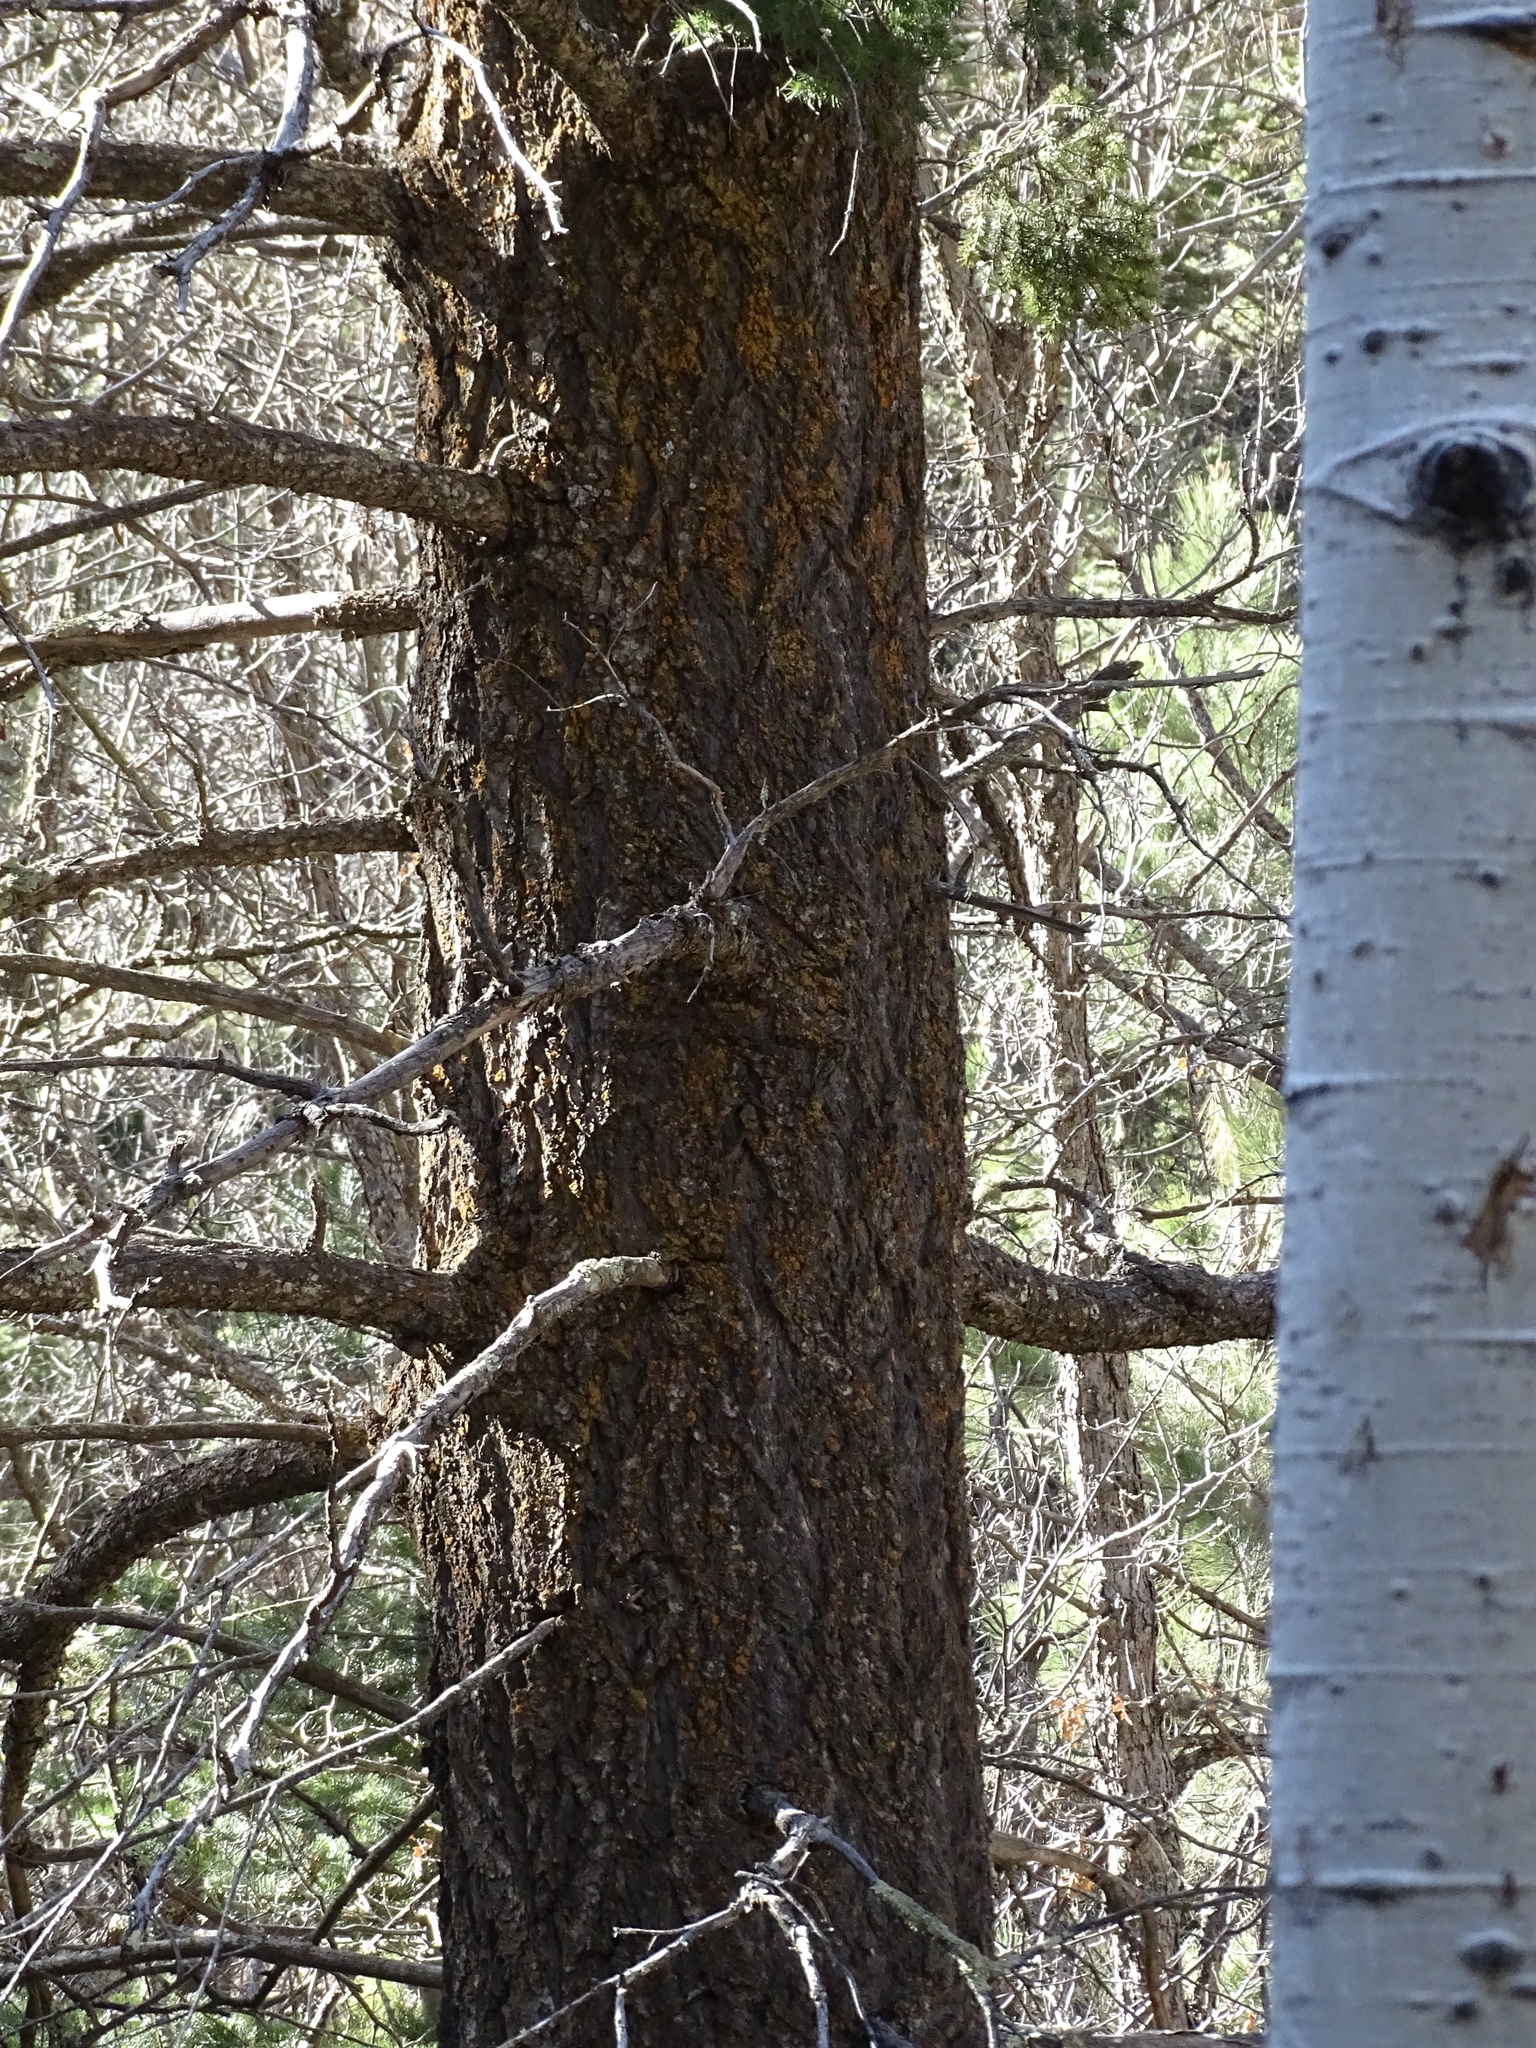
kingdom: Plantae
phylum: Tracheophyta
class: Pinopsida
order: Pinales
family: Pinaceae
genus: Pseudotsuga
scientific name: Pseudotsuga menziesii
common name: Douglas fir
